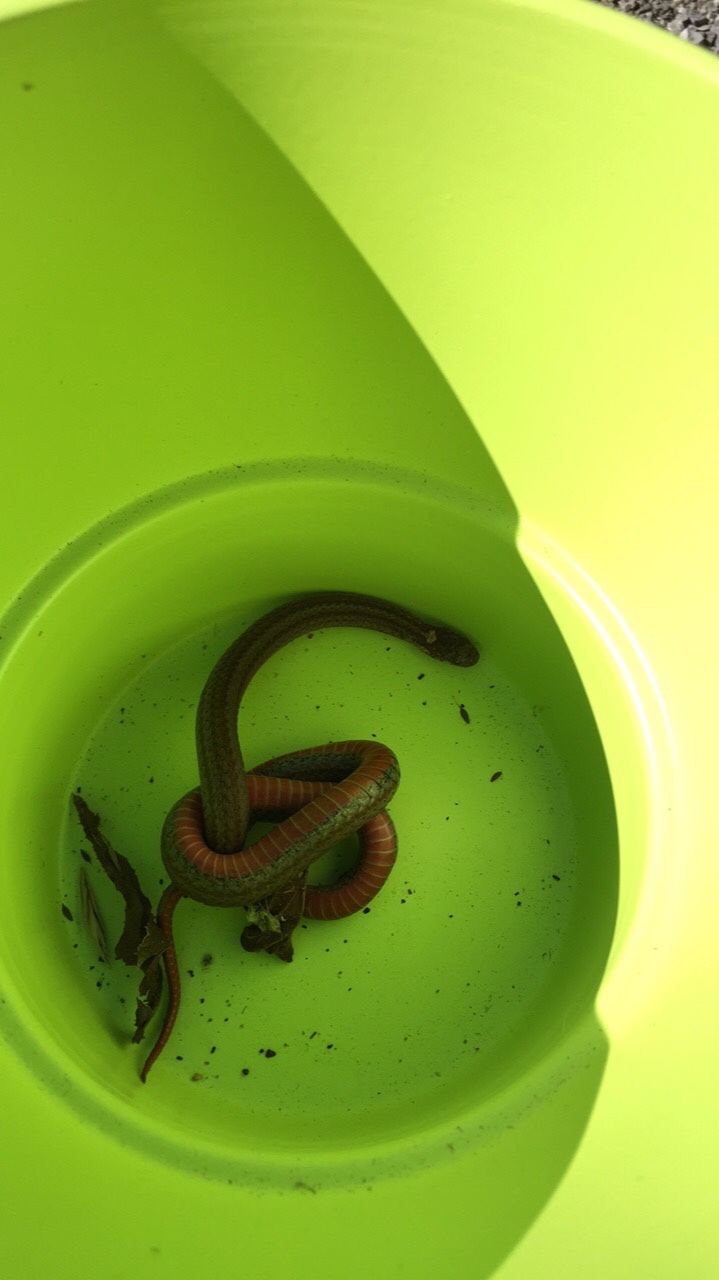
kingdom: Animalia
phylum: Chordata
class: Squamata
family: Colubridae
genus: Storeria
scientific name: Storeria occipitomaculata
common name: Redbelly snake
